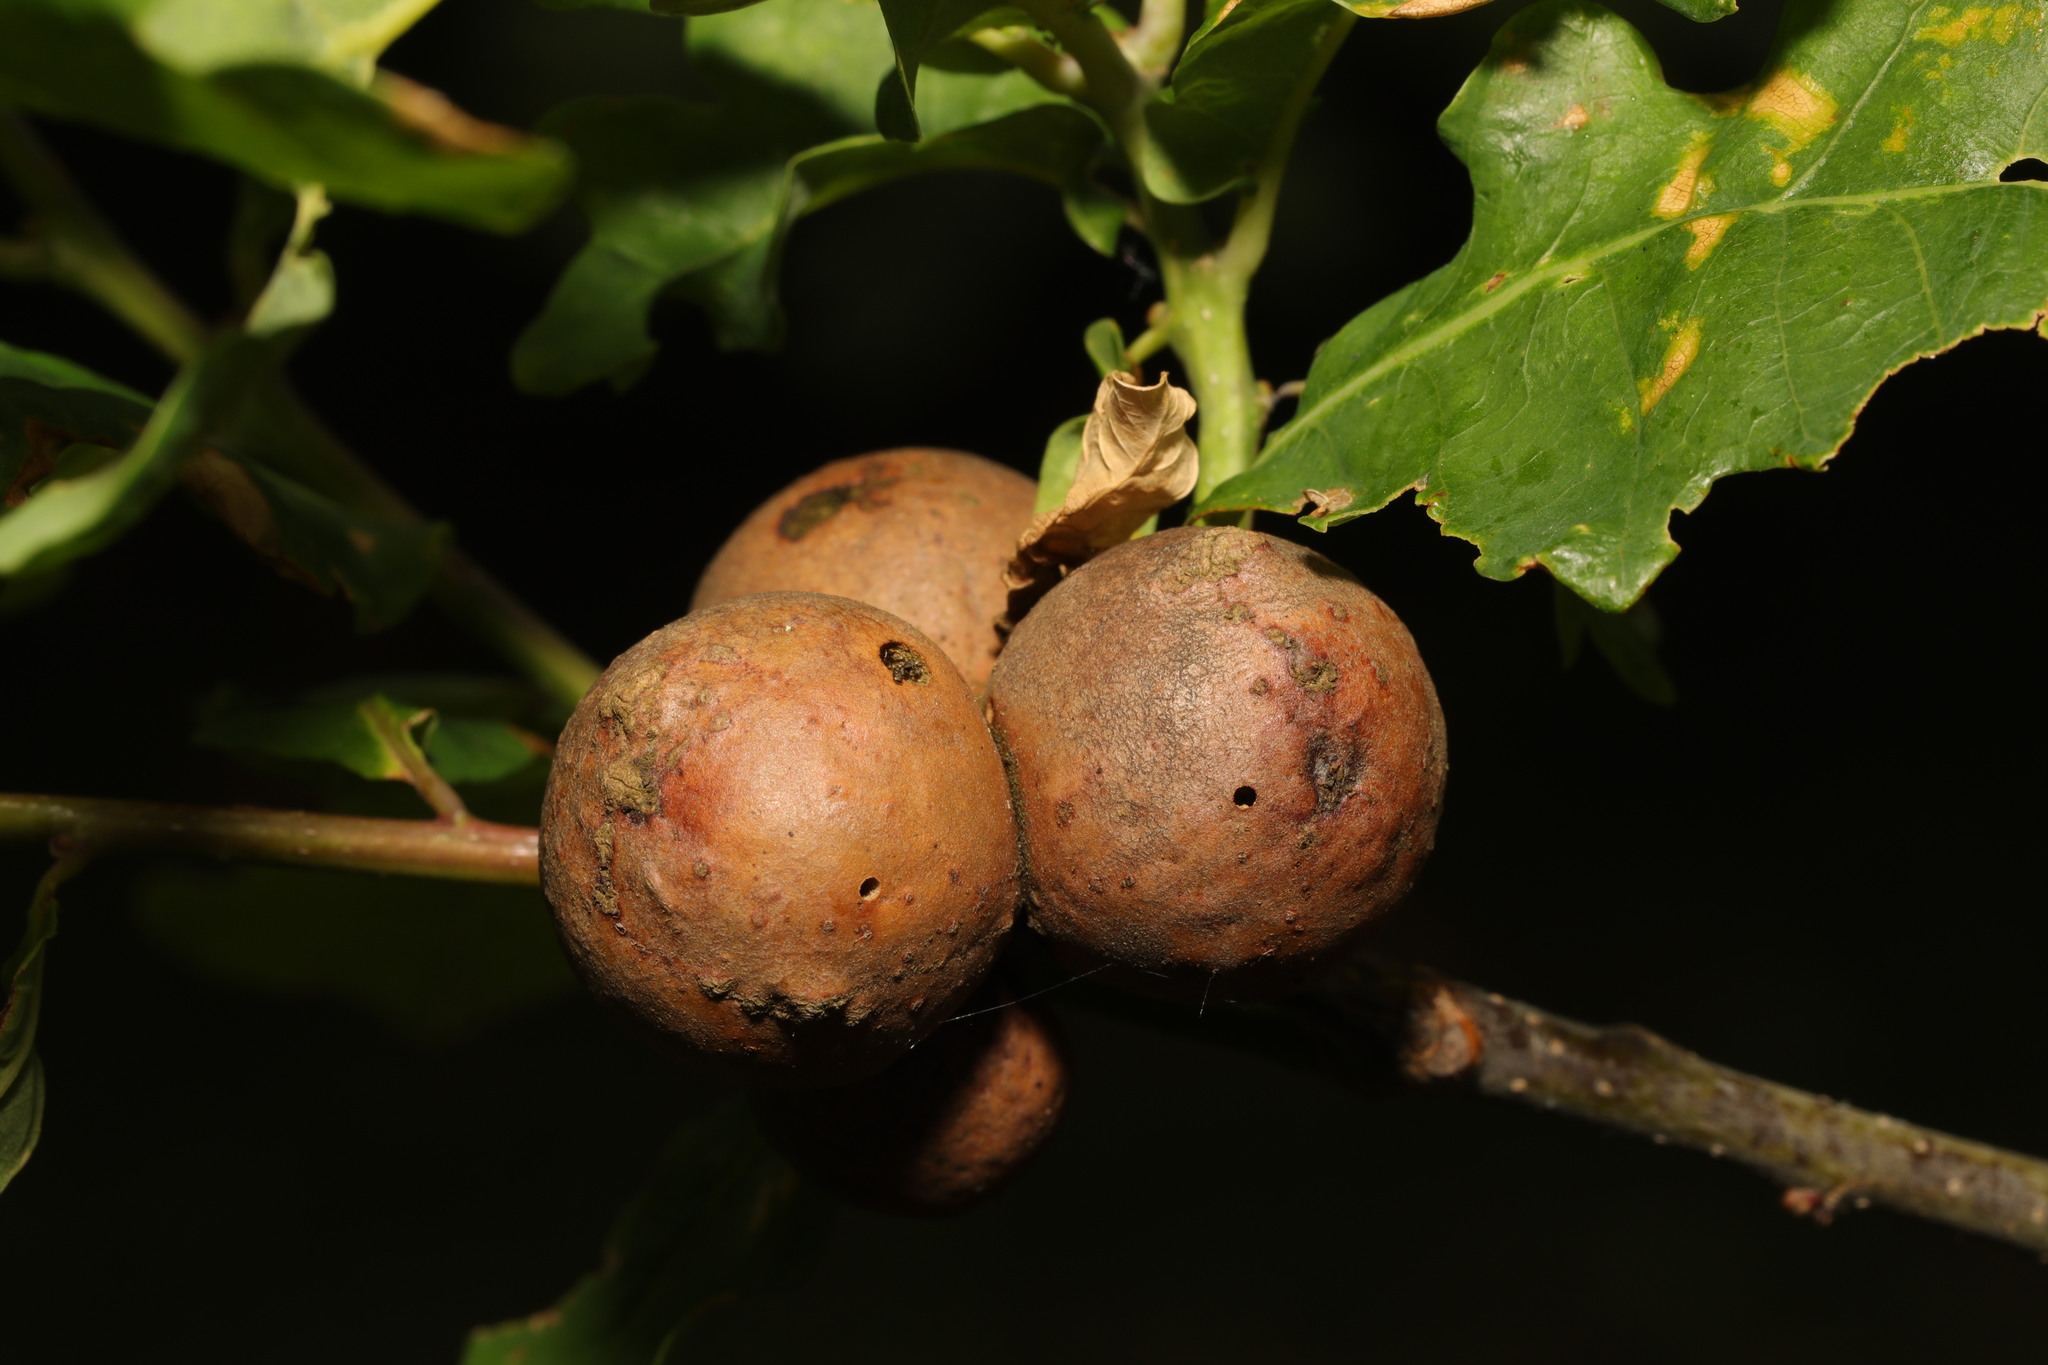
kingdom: Animalia
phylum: Arthropoda
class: Insecta
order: Hymenoptera
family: Cynipidae
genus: Andricus
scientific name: Andricus kollari
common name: Marble gall
